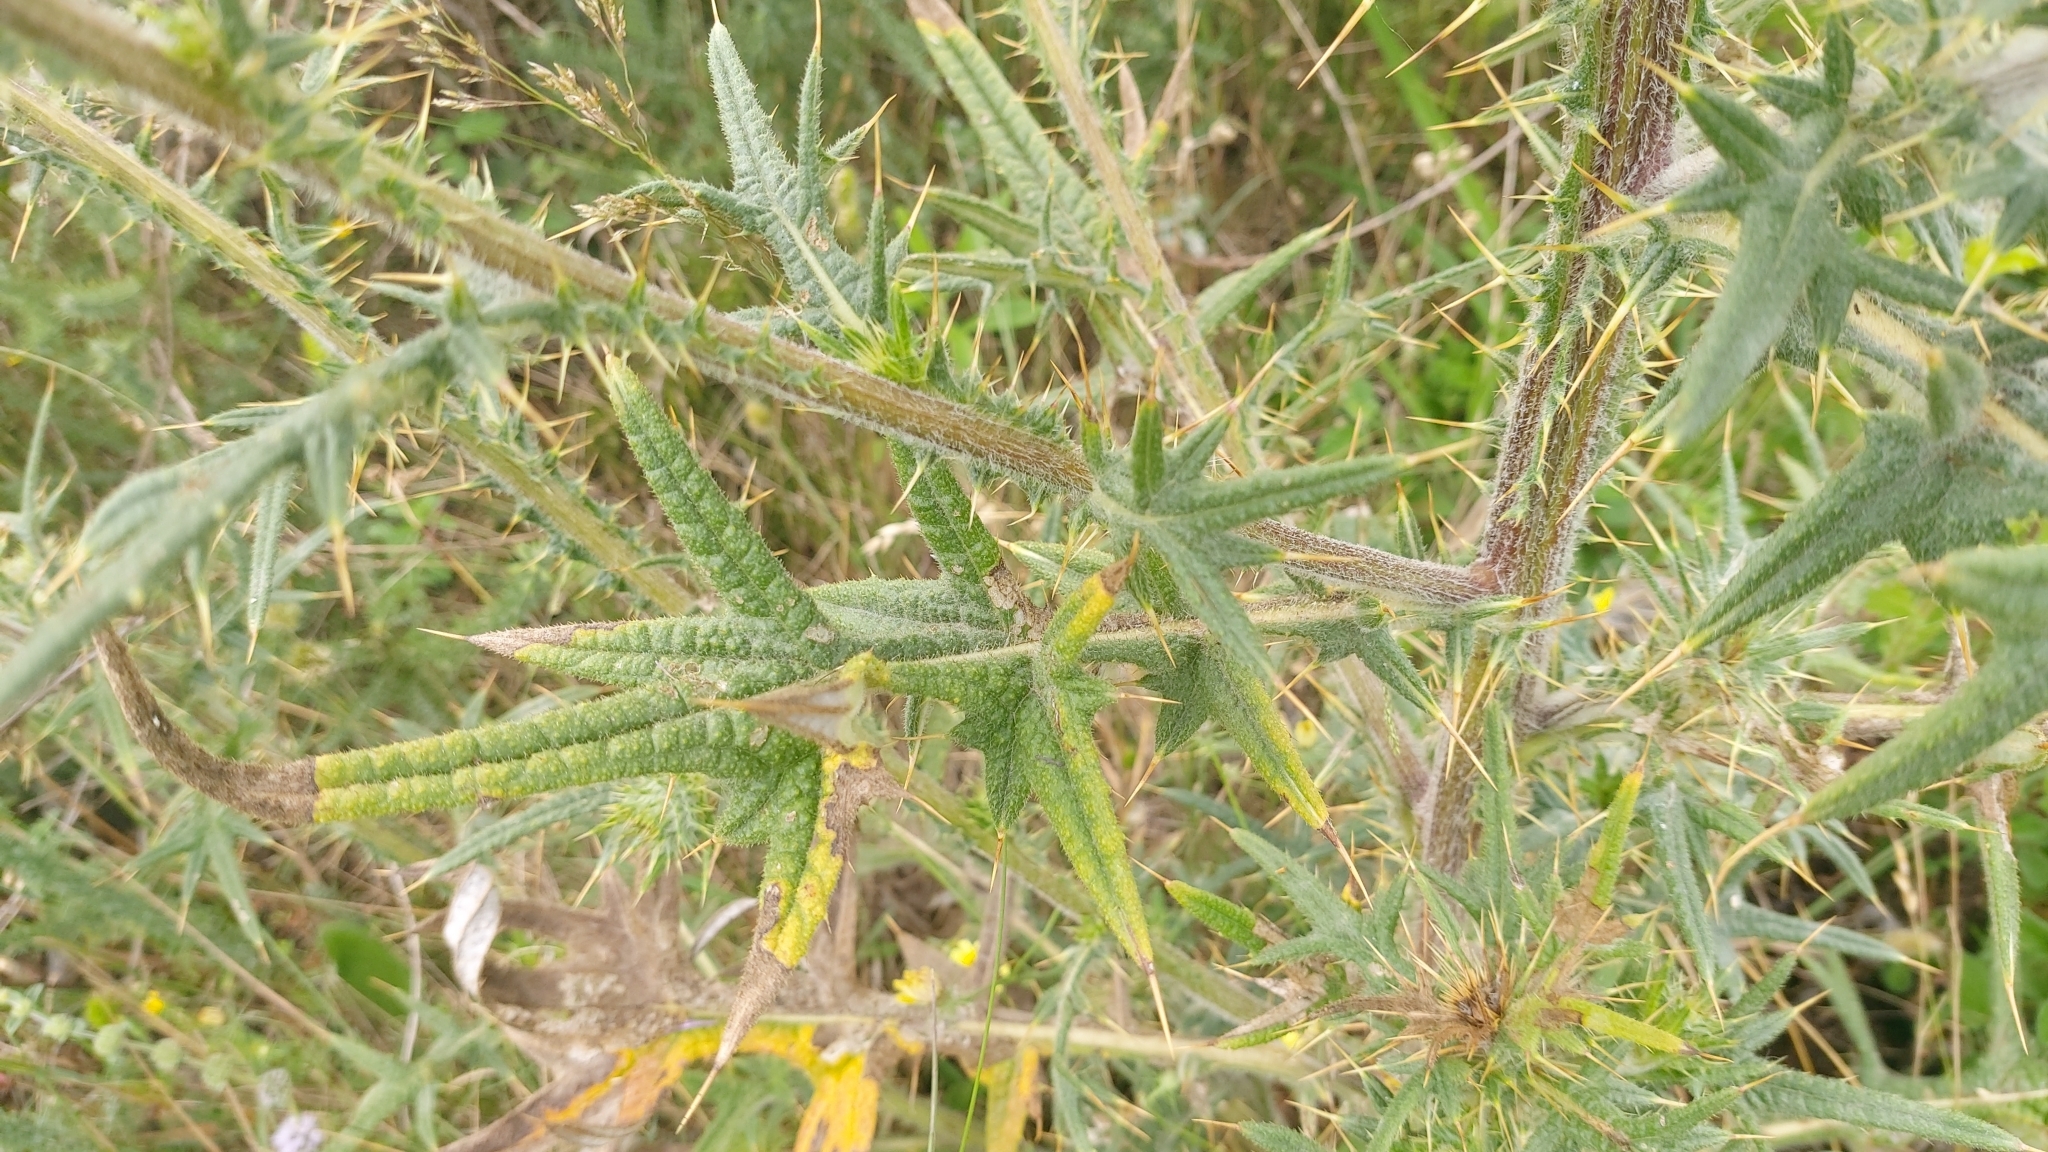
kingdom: Plantae
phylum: Tracheophyta
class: Magnoliopsida
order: Asterales
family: Asteraceae
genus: Cirsium
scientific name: Cirsium vulgare
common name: Bull thistle
